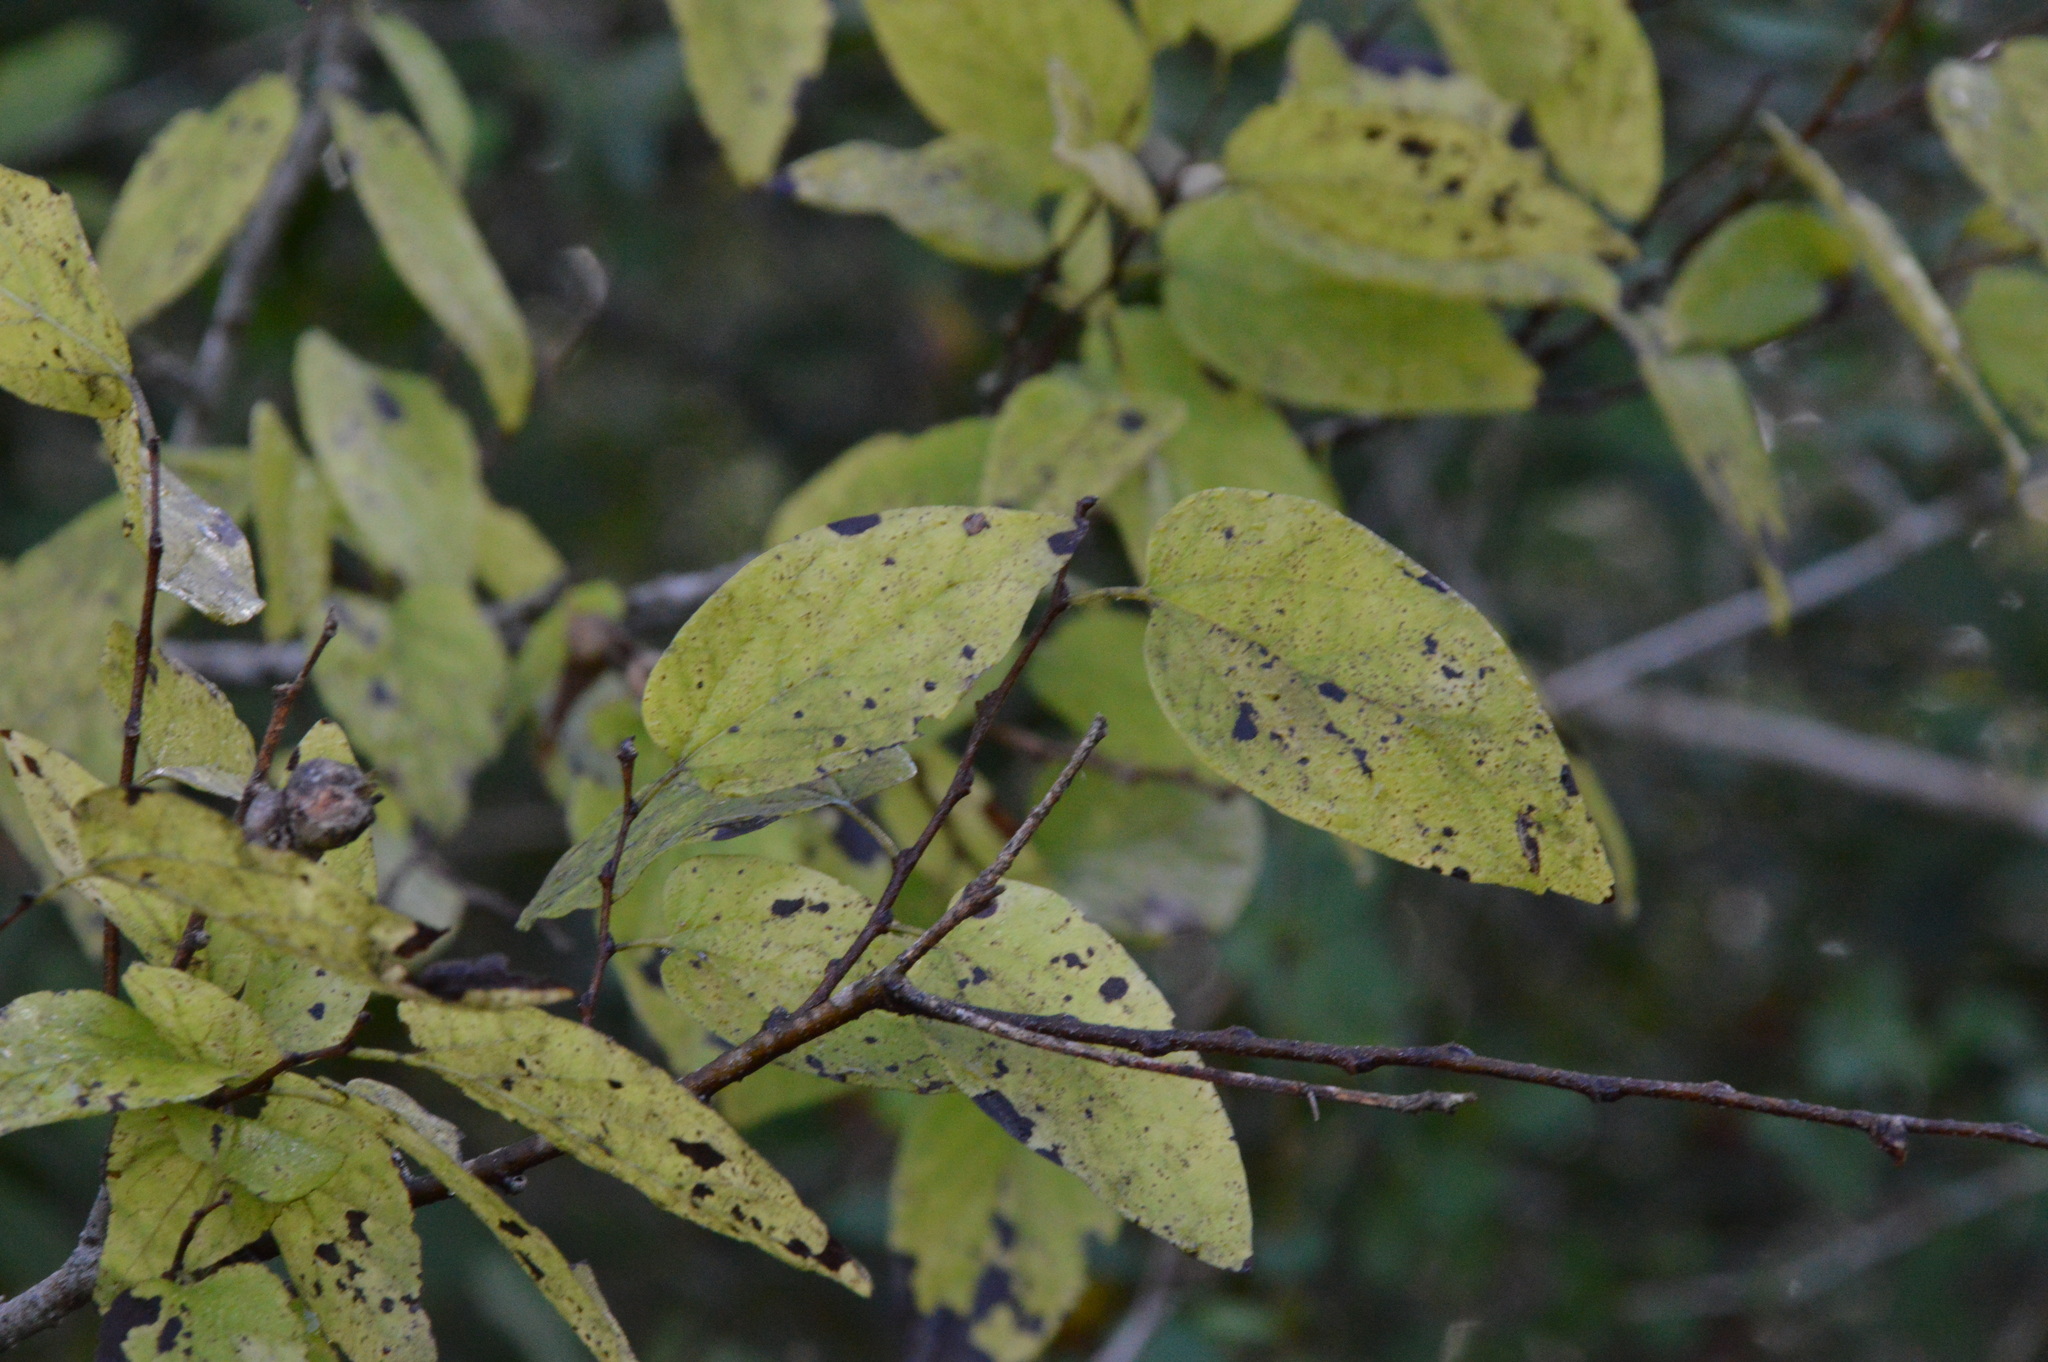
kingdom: Plantae
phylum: Tracheophyta
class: Magnoliopsida
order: Rosales
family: Cannabaceae
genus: Celtis
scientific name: Celtis laevigata
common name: Sugarberry
